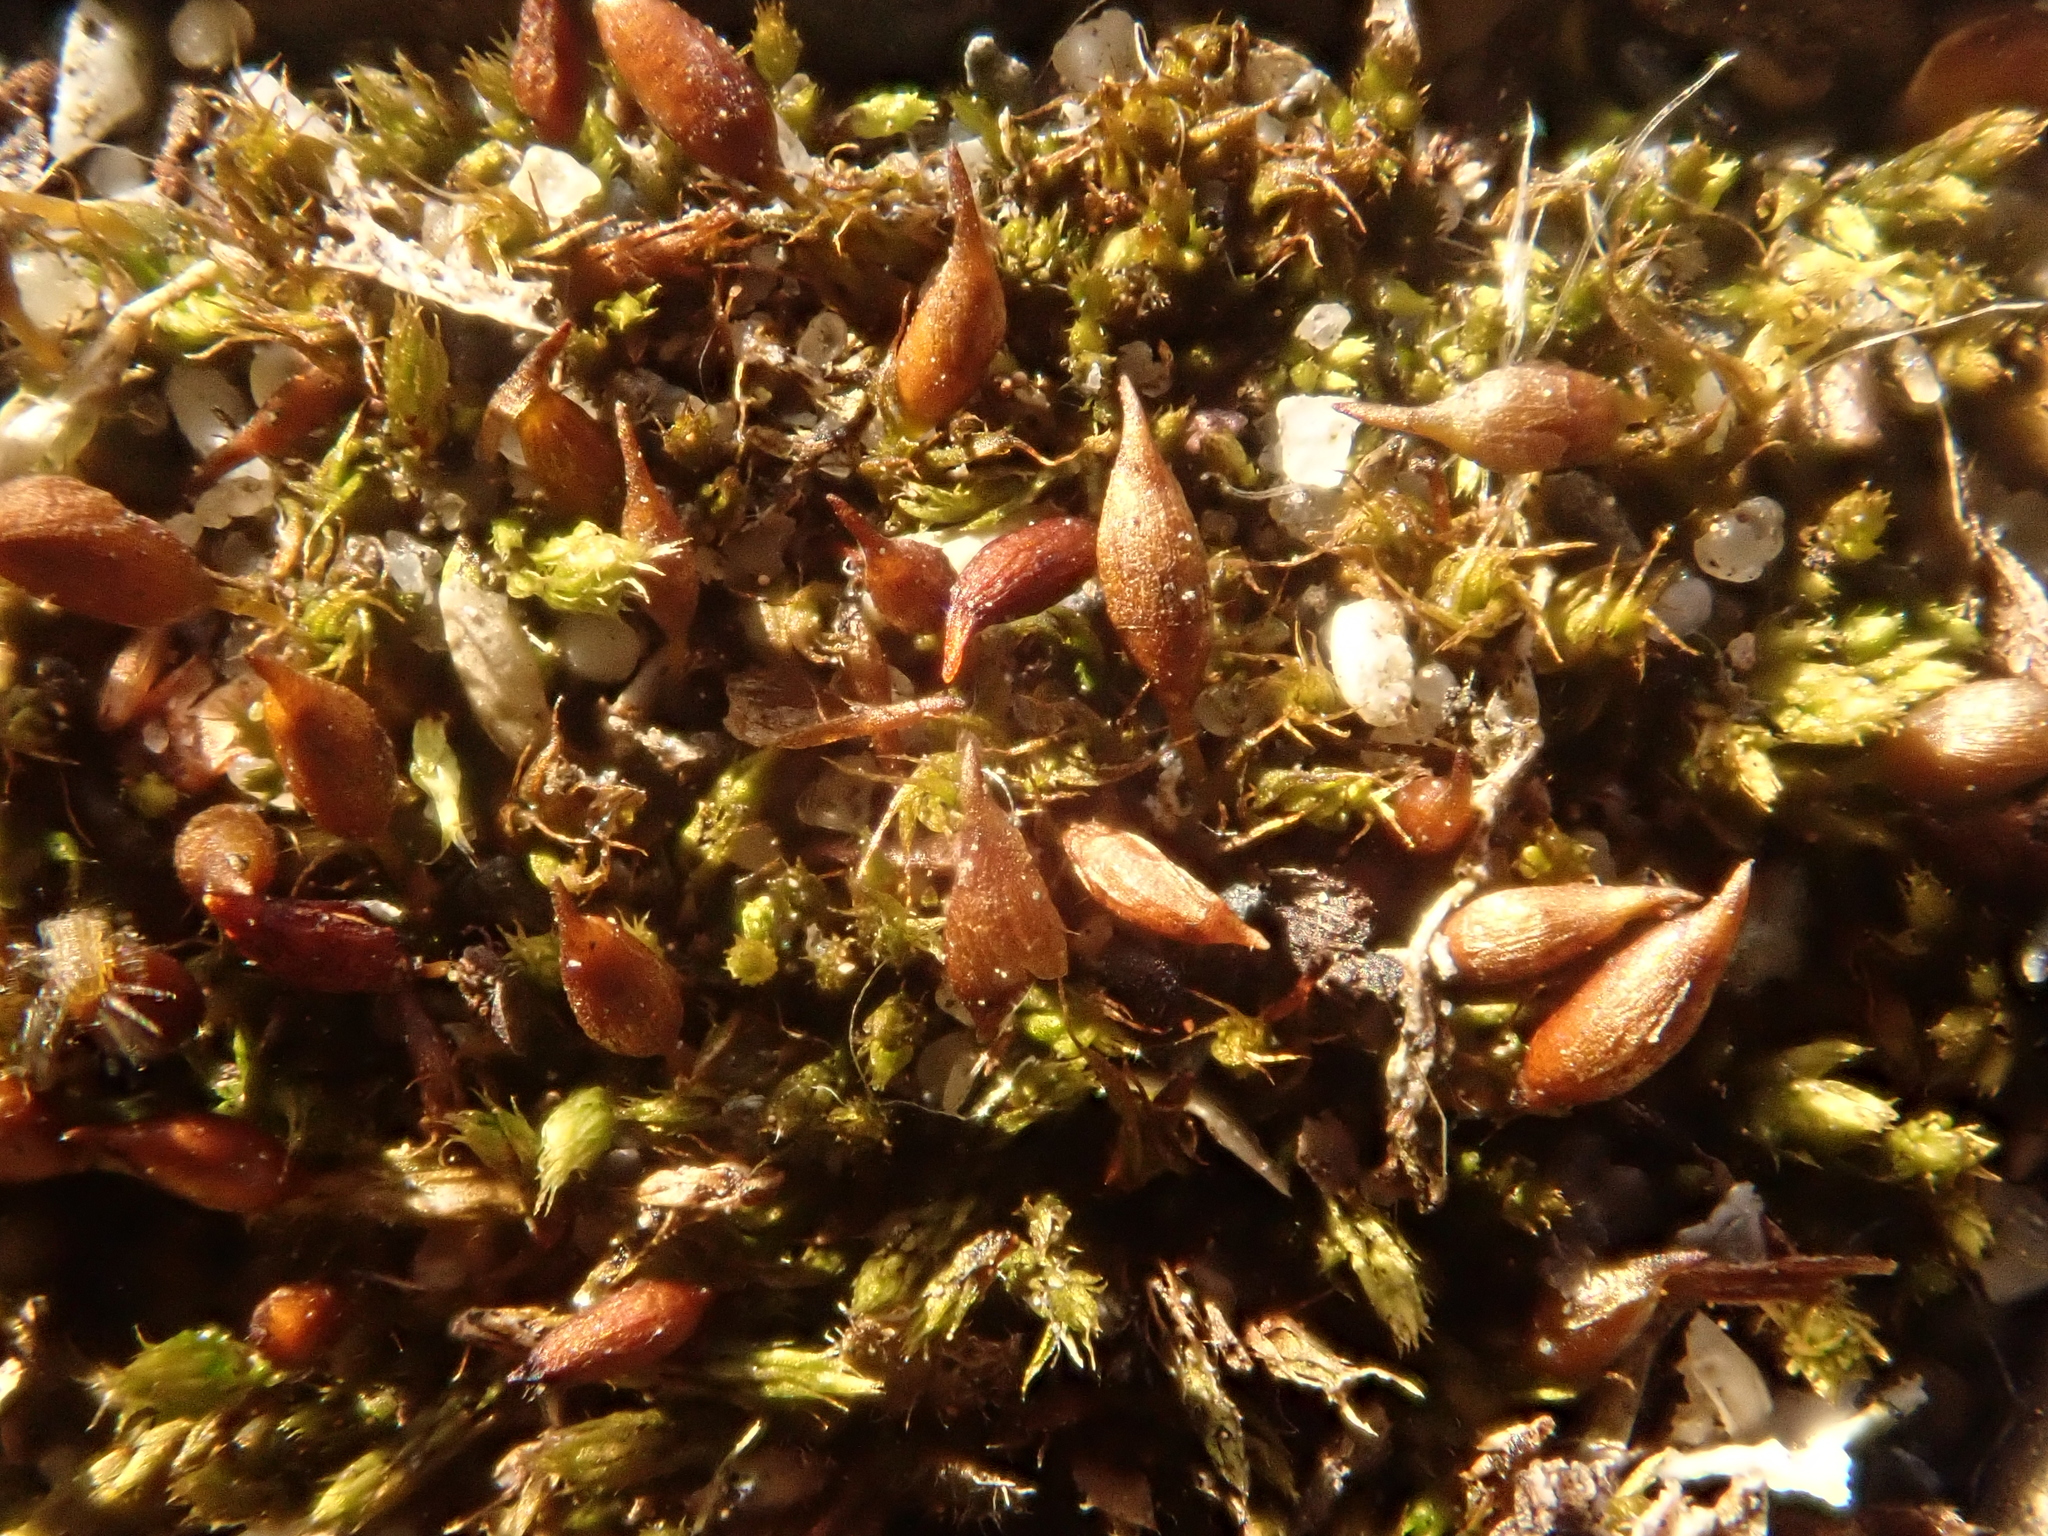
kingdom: Plantae
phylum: Bryophyta
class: Bryopsida
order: Pottiales
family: Pottiaceae
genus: Tortula
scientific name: Tortula protobryoides
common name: Tall pottia
